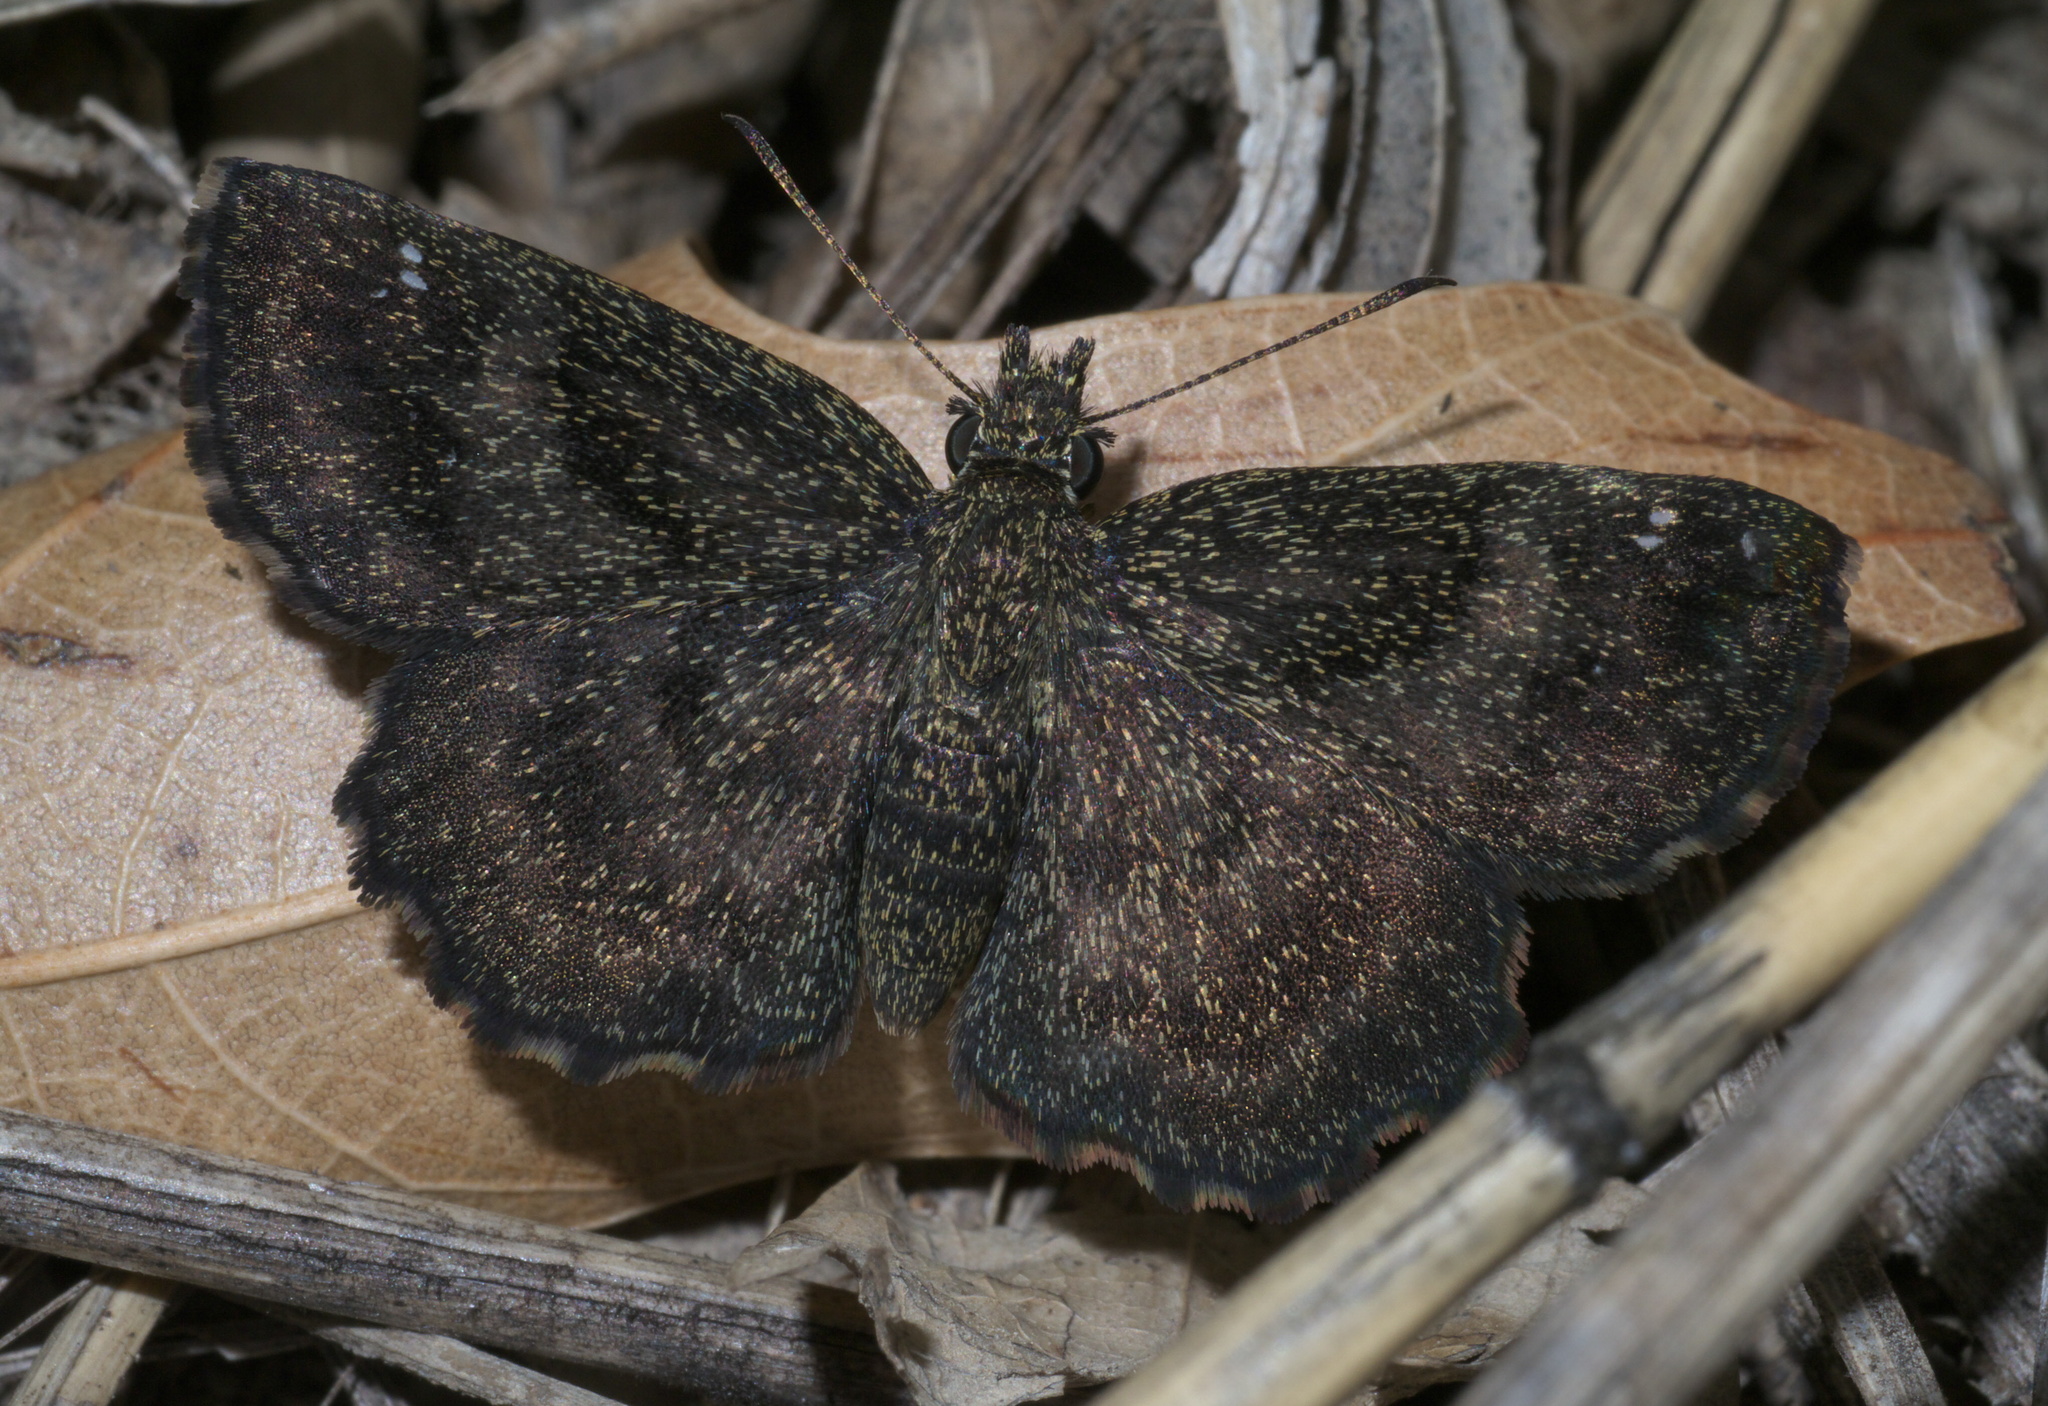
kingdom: Animalia
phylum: Arthropoda
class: Insecta
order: Lepidoptera
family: Hesperiidae
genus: Staphylus
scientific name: Staphylus mazans
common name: Mazans scallopwing
